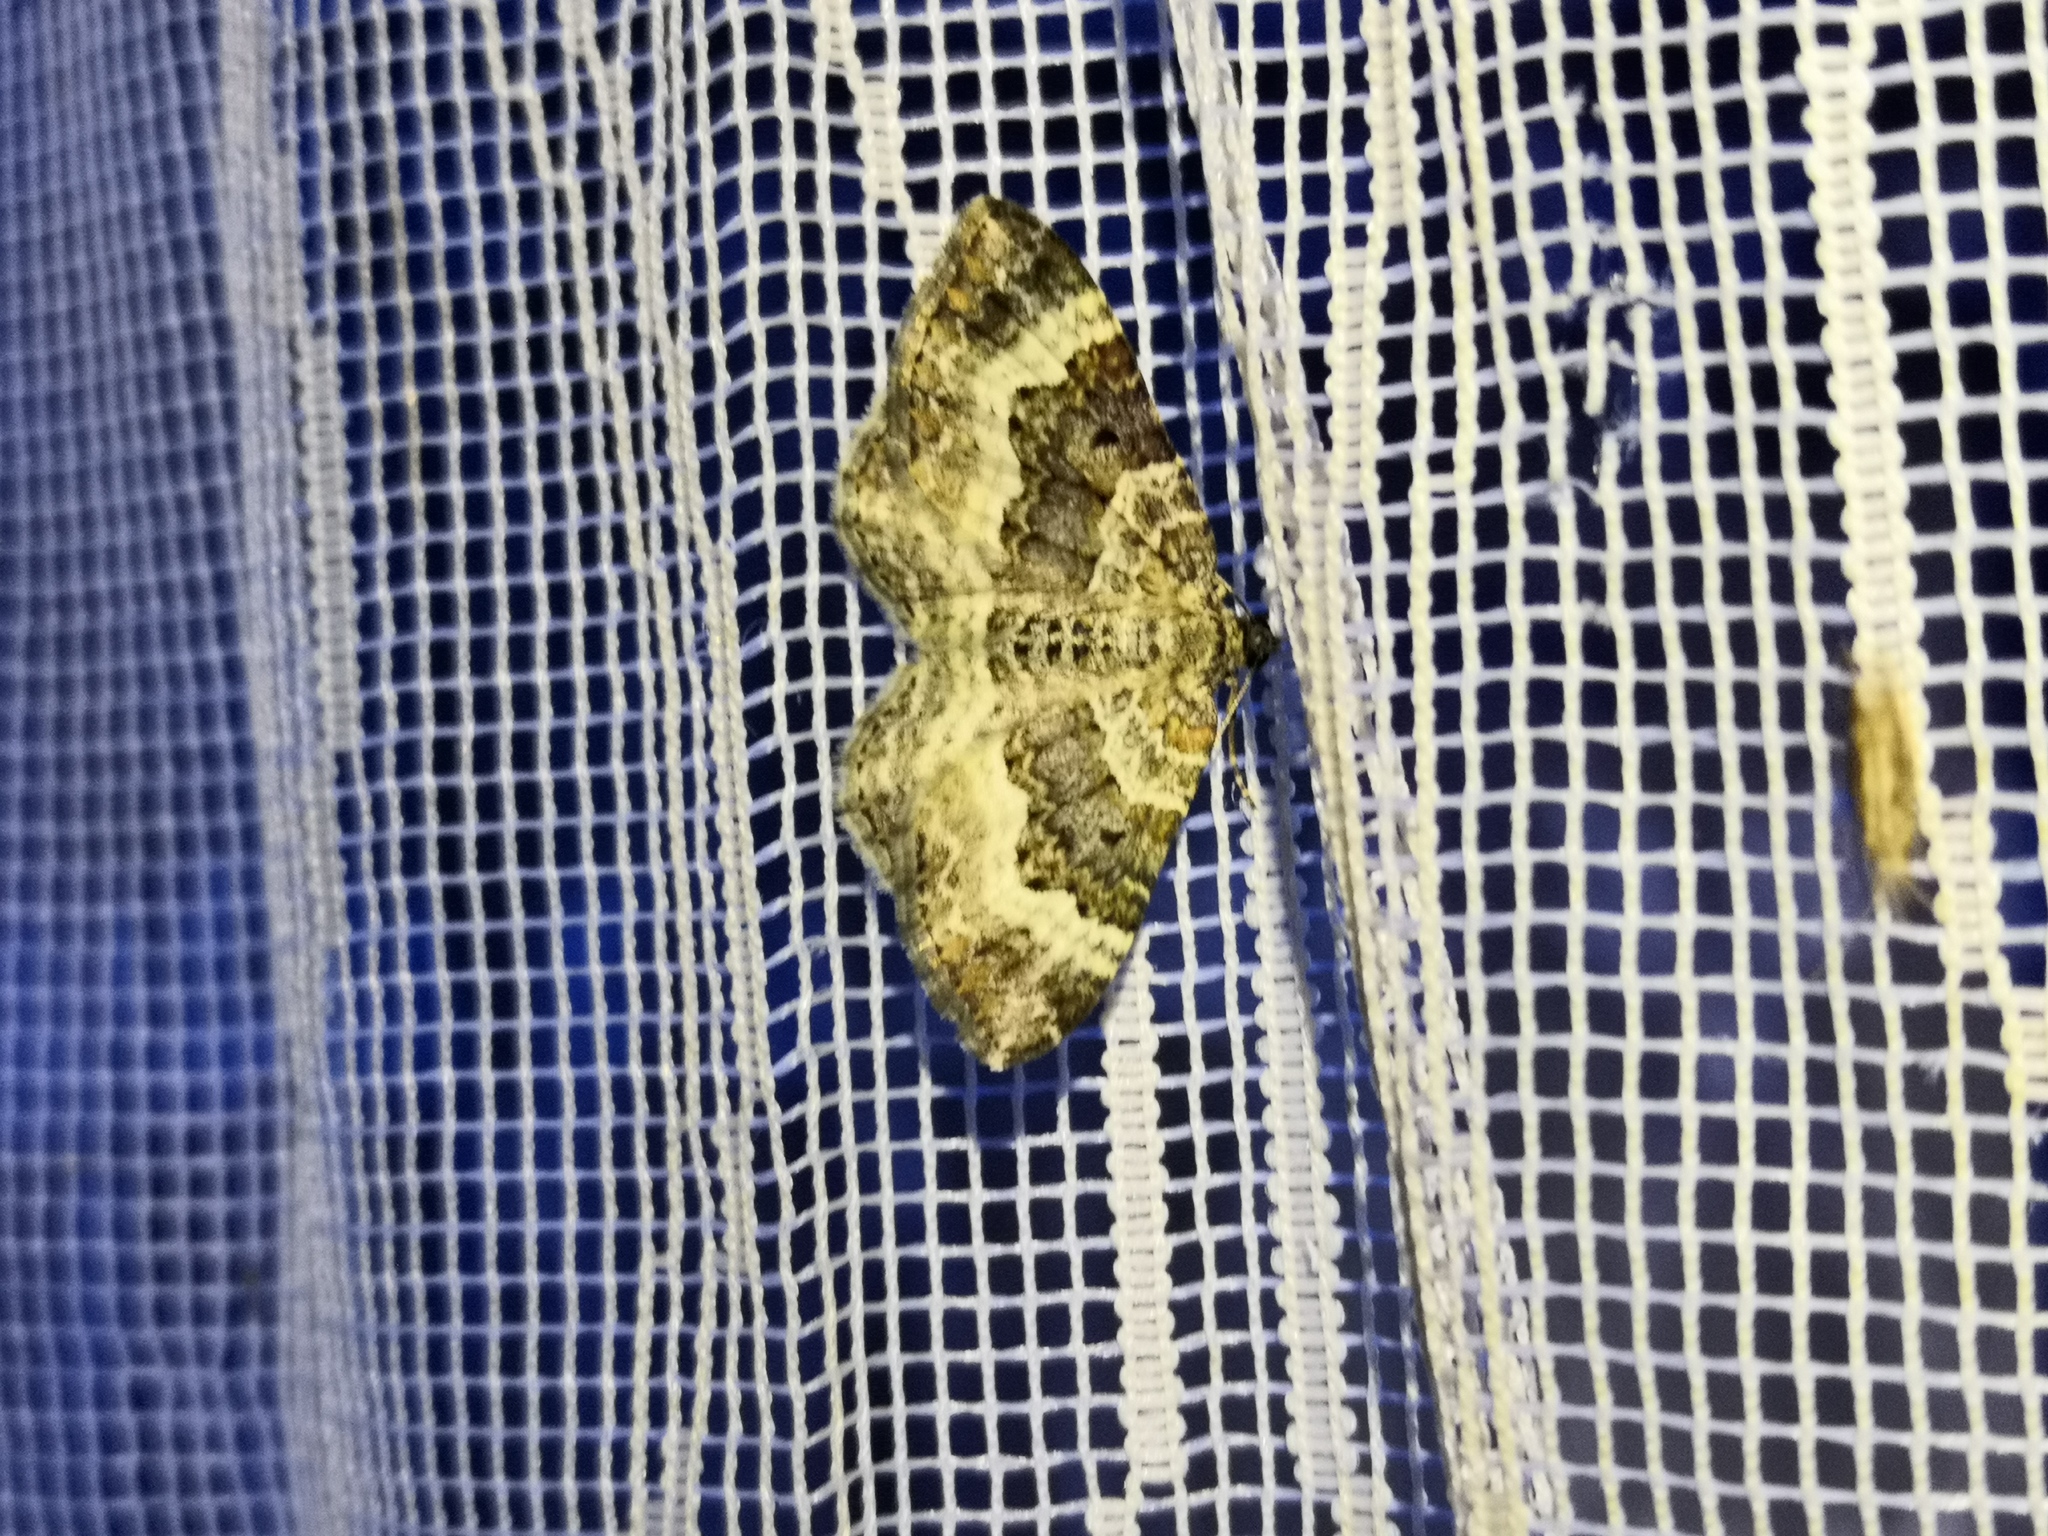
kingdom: Animalia
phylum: Arthropoda
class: Insecta
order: Lepidoptera
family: Geometridae
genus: Epirrhoe
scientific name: Epirrhoe alternata
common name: Common carpet
